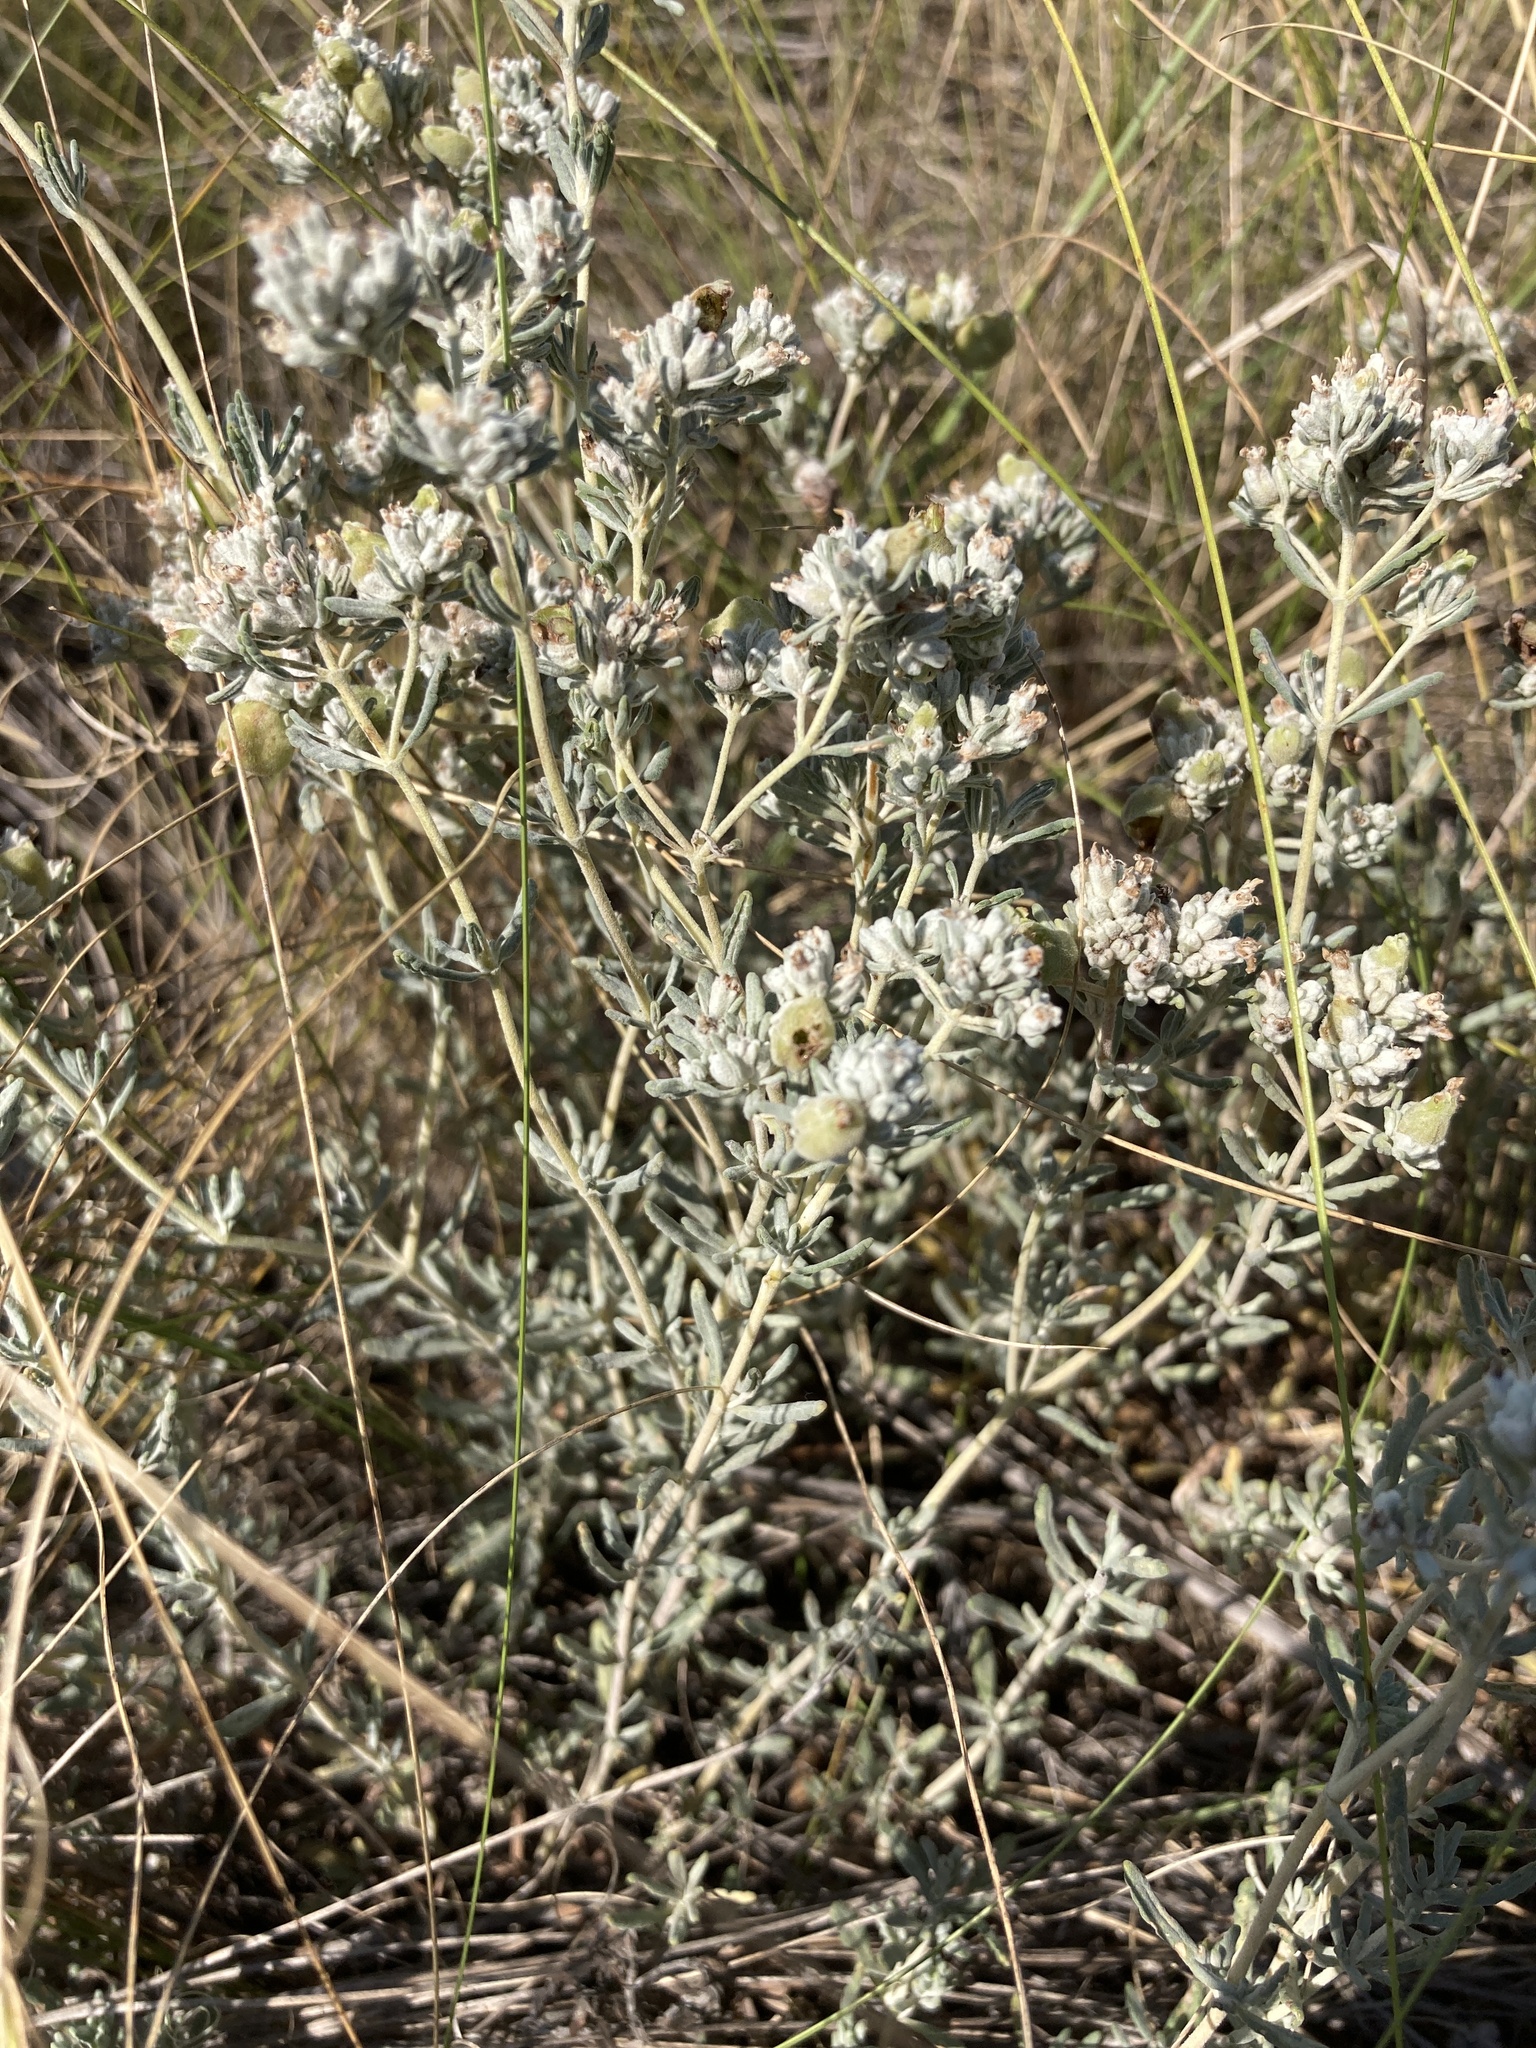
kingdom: Plantae
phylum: Tracheophyta
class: Magnoliopsida
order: Lamiales
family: Lamiaceae
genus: Teucrium
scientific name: Teucrium polium
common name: Poley
